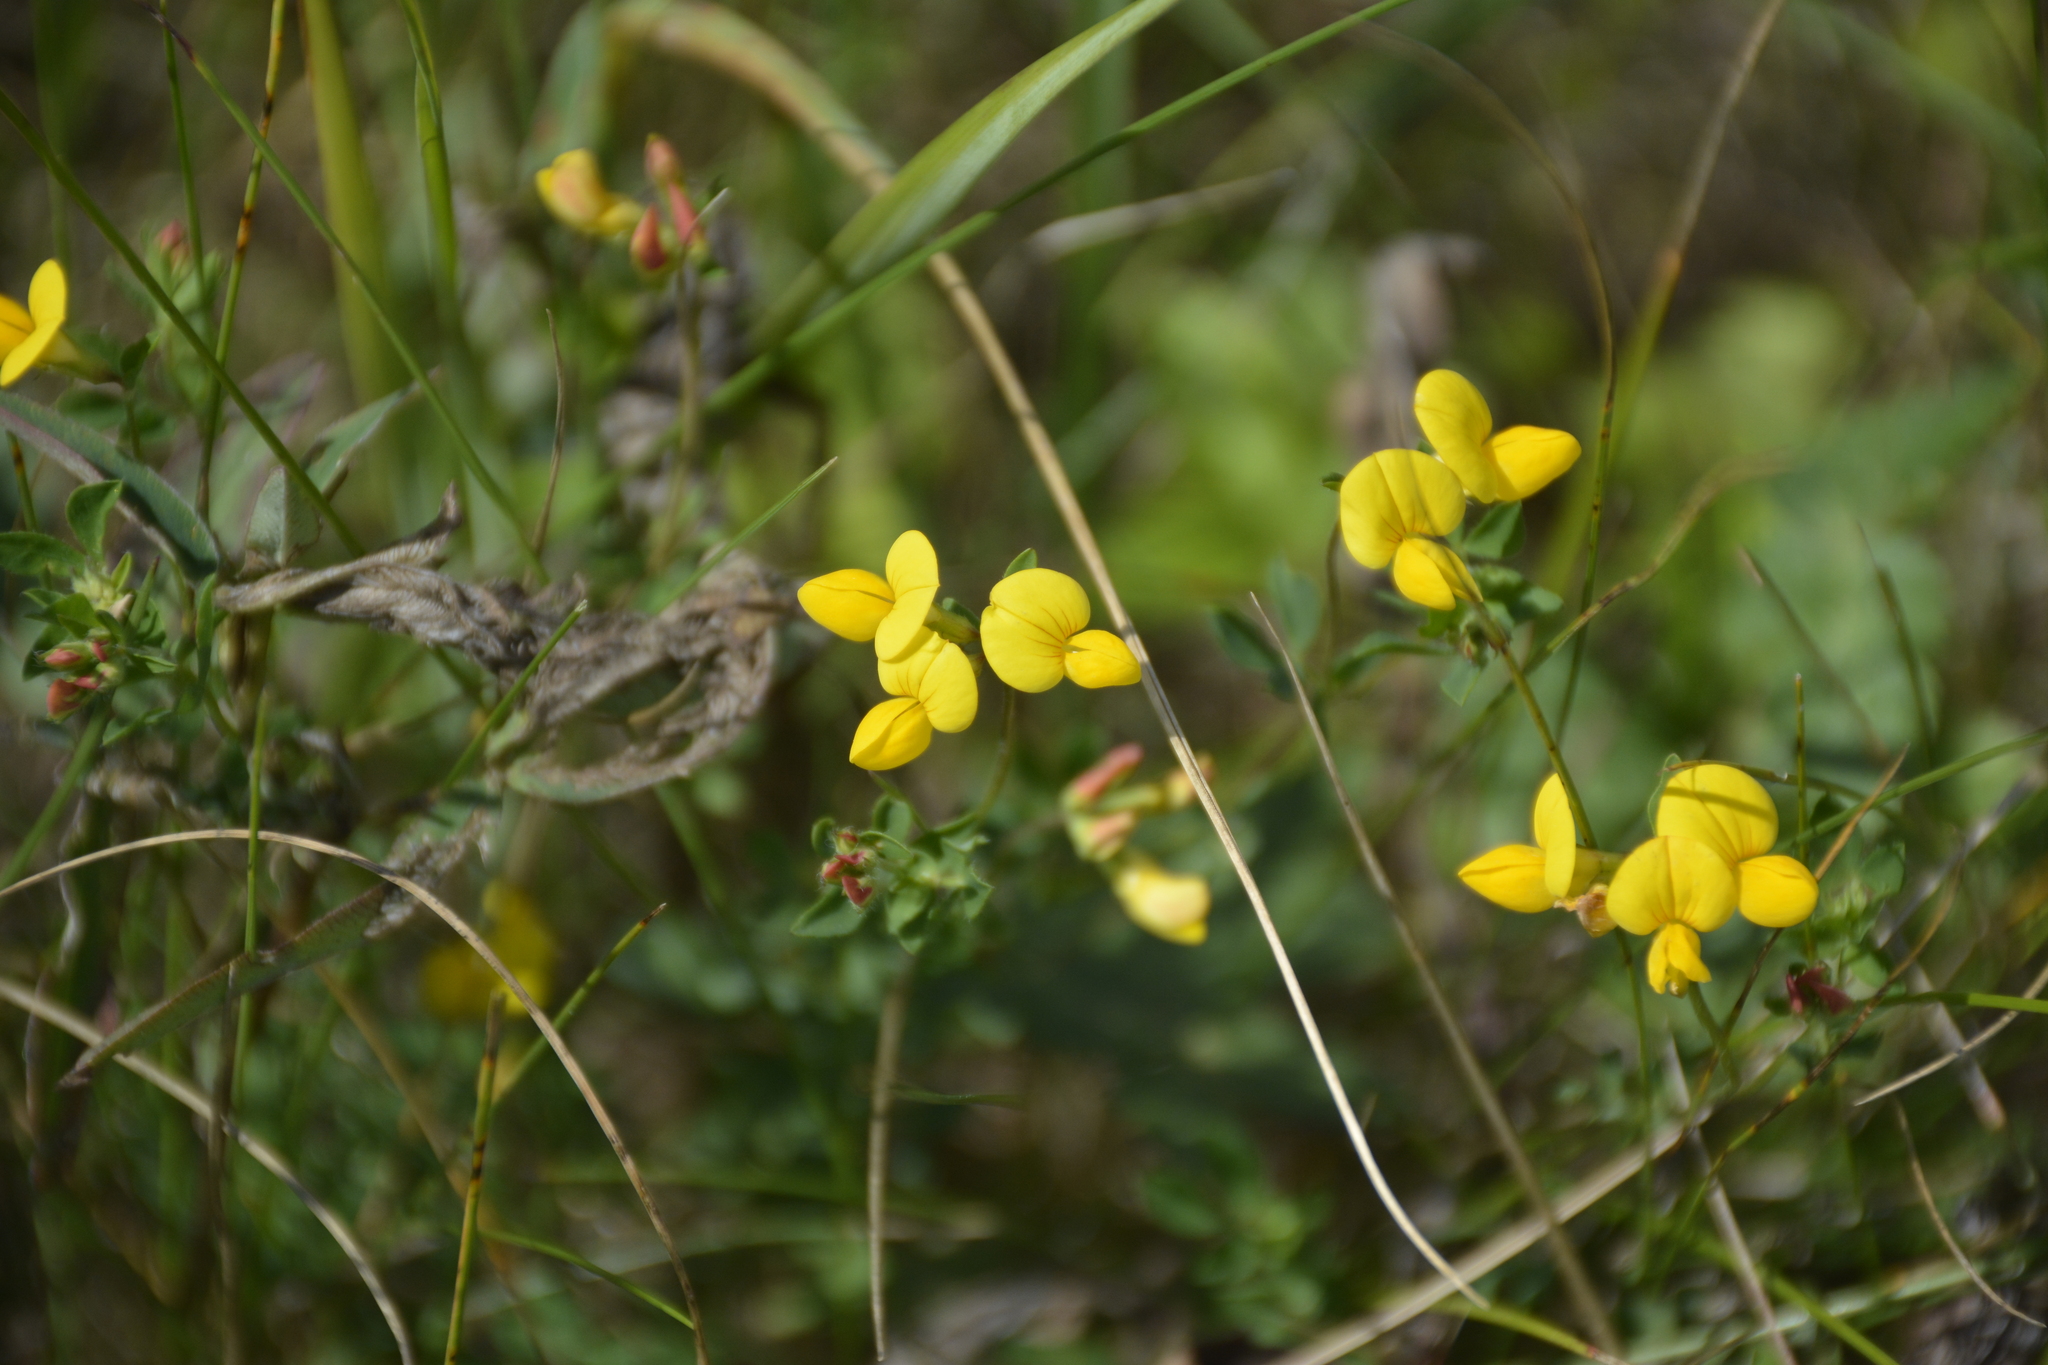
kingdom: Plantae
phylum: Tracheophyta
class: Magnoliopsida
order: Fabales
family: Fabaceae
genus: Lotus
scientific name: Lotus corniculatus
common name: Common bird's-foot-trefoil
